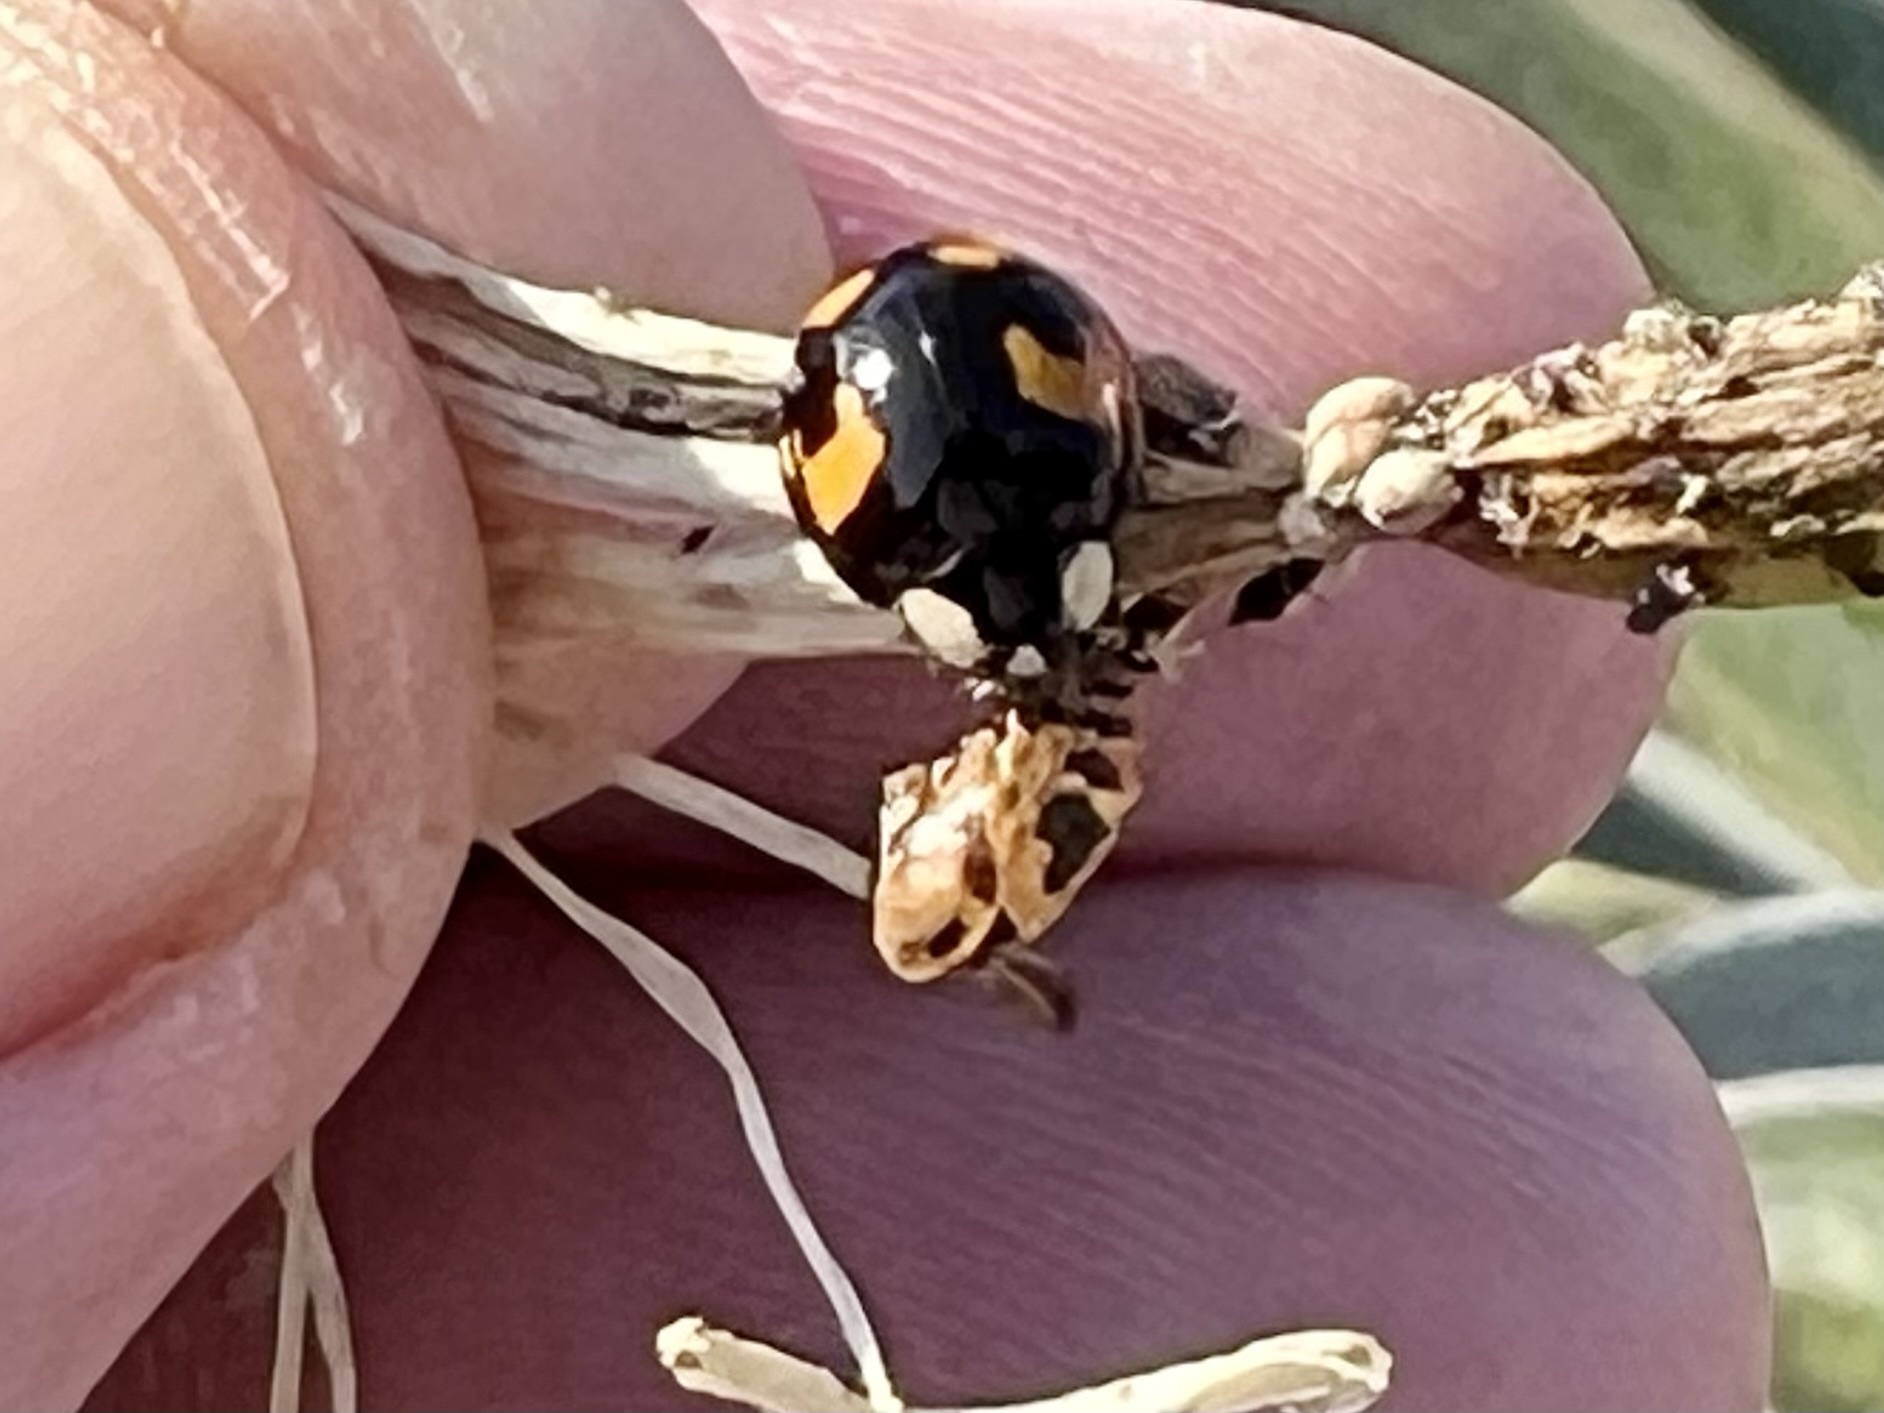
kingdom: Animalia
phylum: Arthropoda
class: Insecta
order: Coleoptera
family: Coccinellidae
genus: Harmonia
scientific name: Harmonia axyridis
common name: Harlequin ladybird
